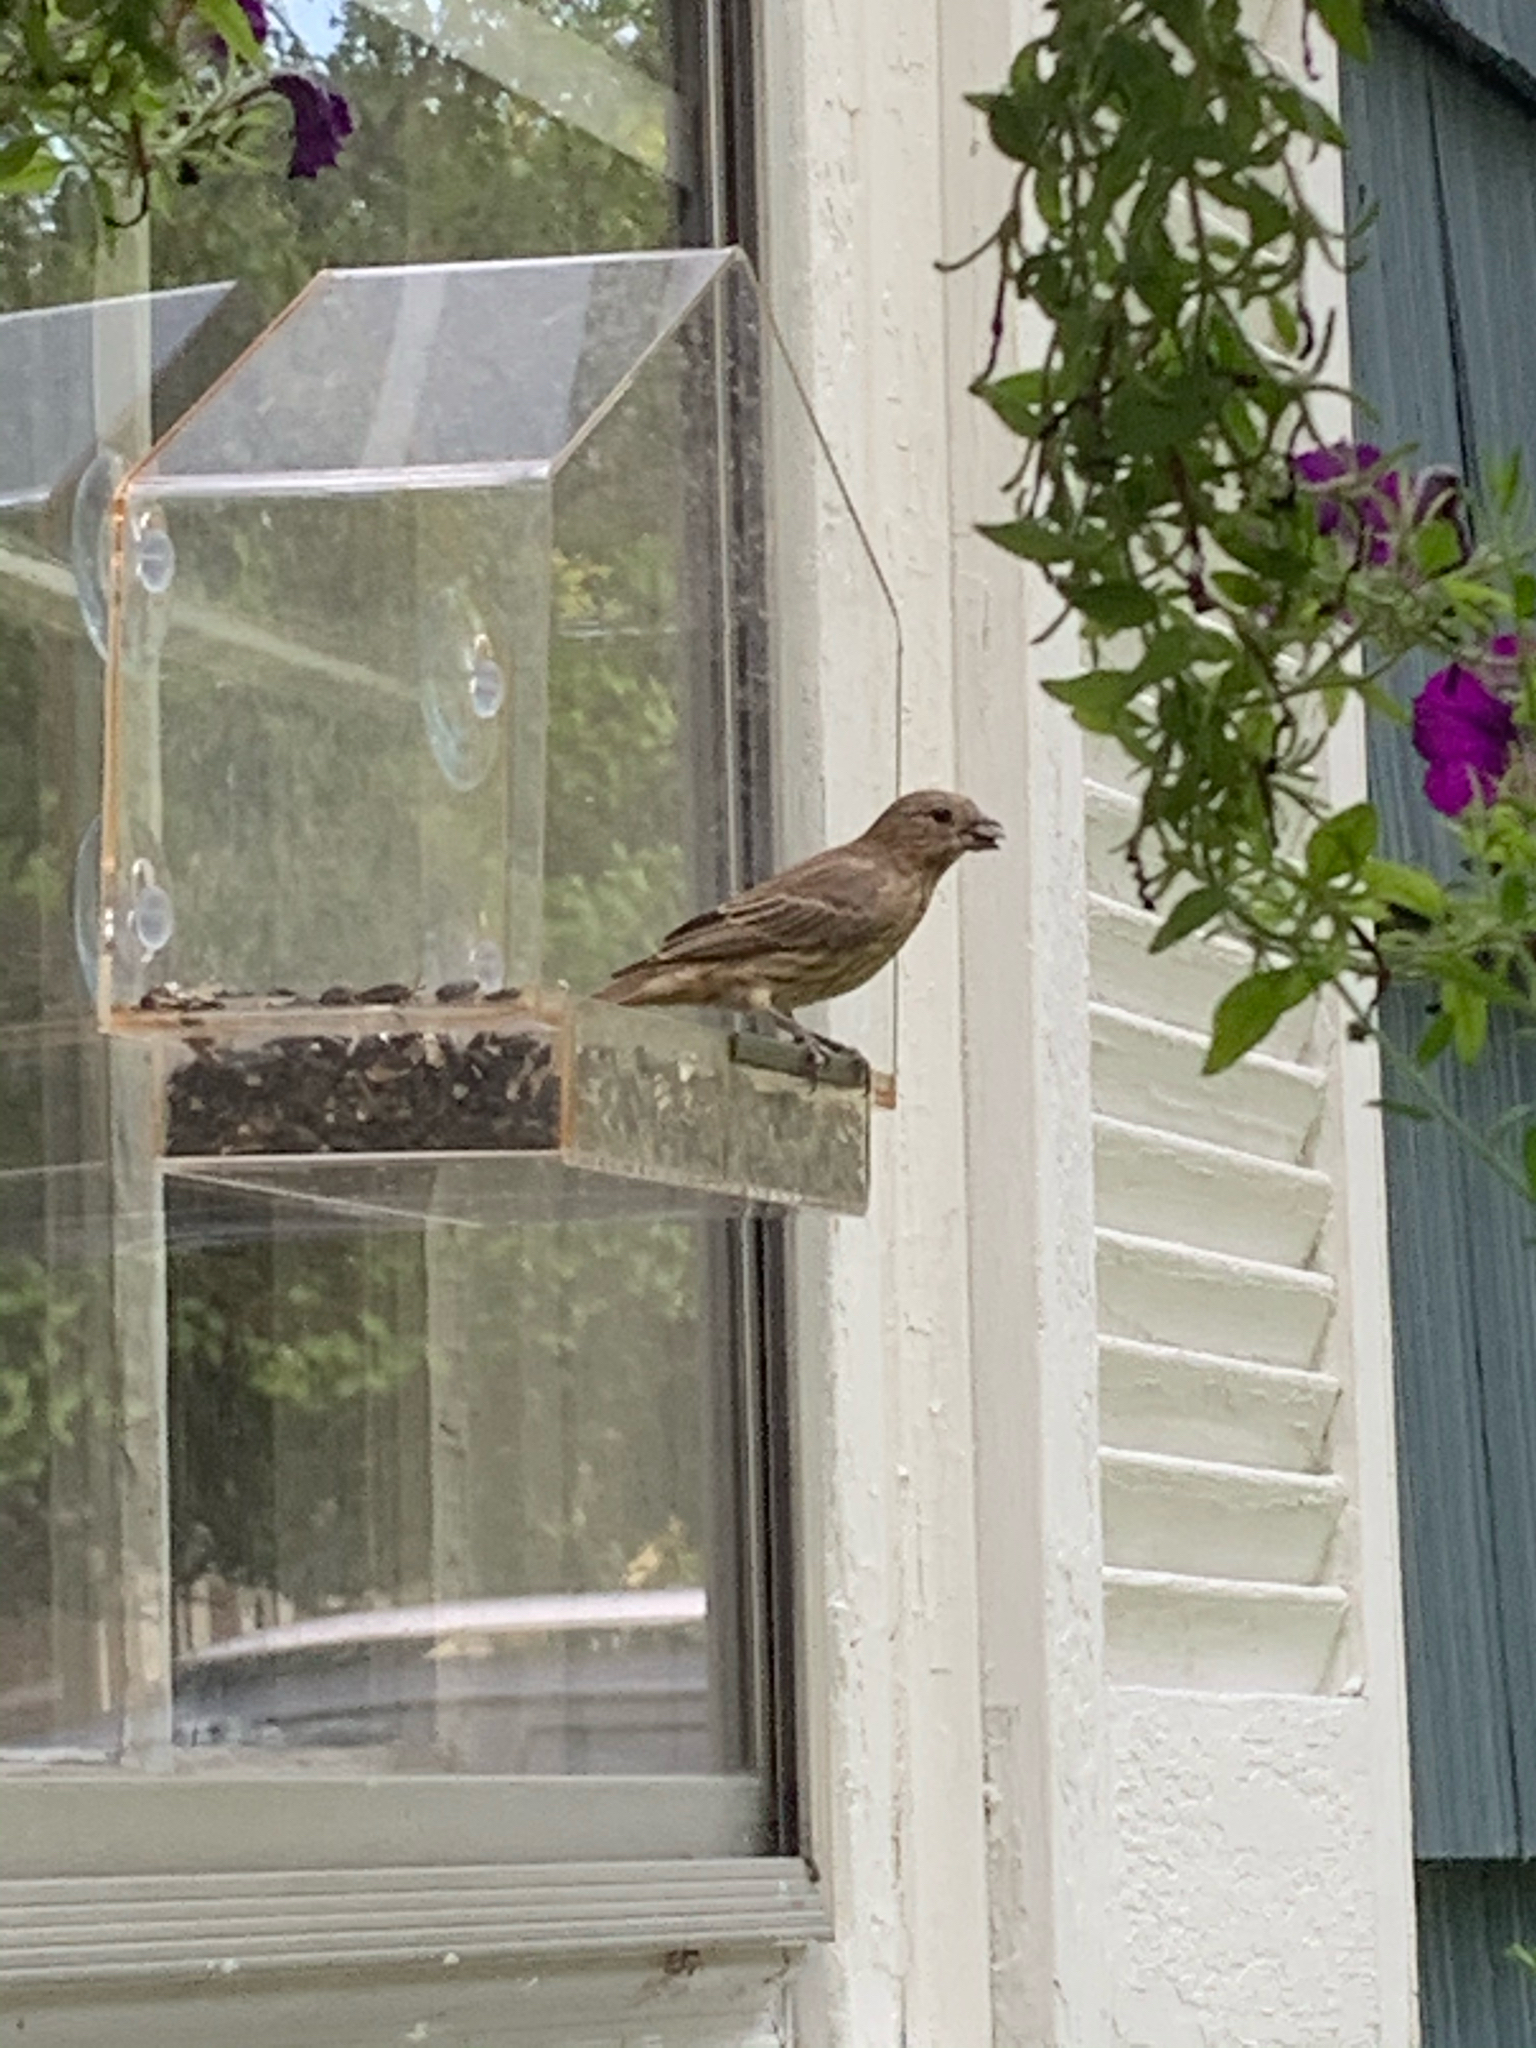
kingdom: Animalia
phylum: Chordata
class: Aves
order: Passeriformes
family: Fringillidae
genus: Haemorhous
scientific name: Haemorhous mexicanus
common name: House finch
